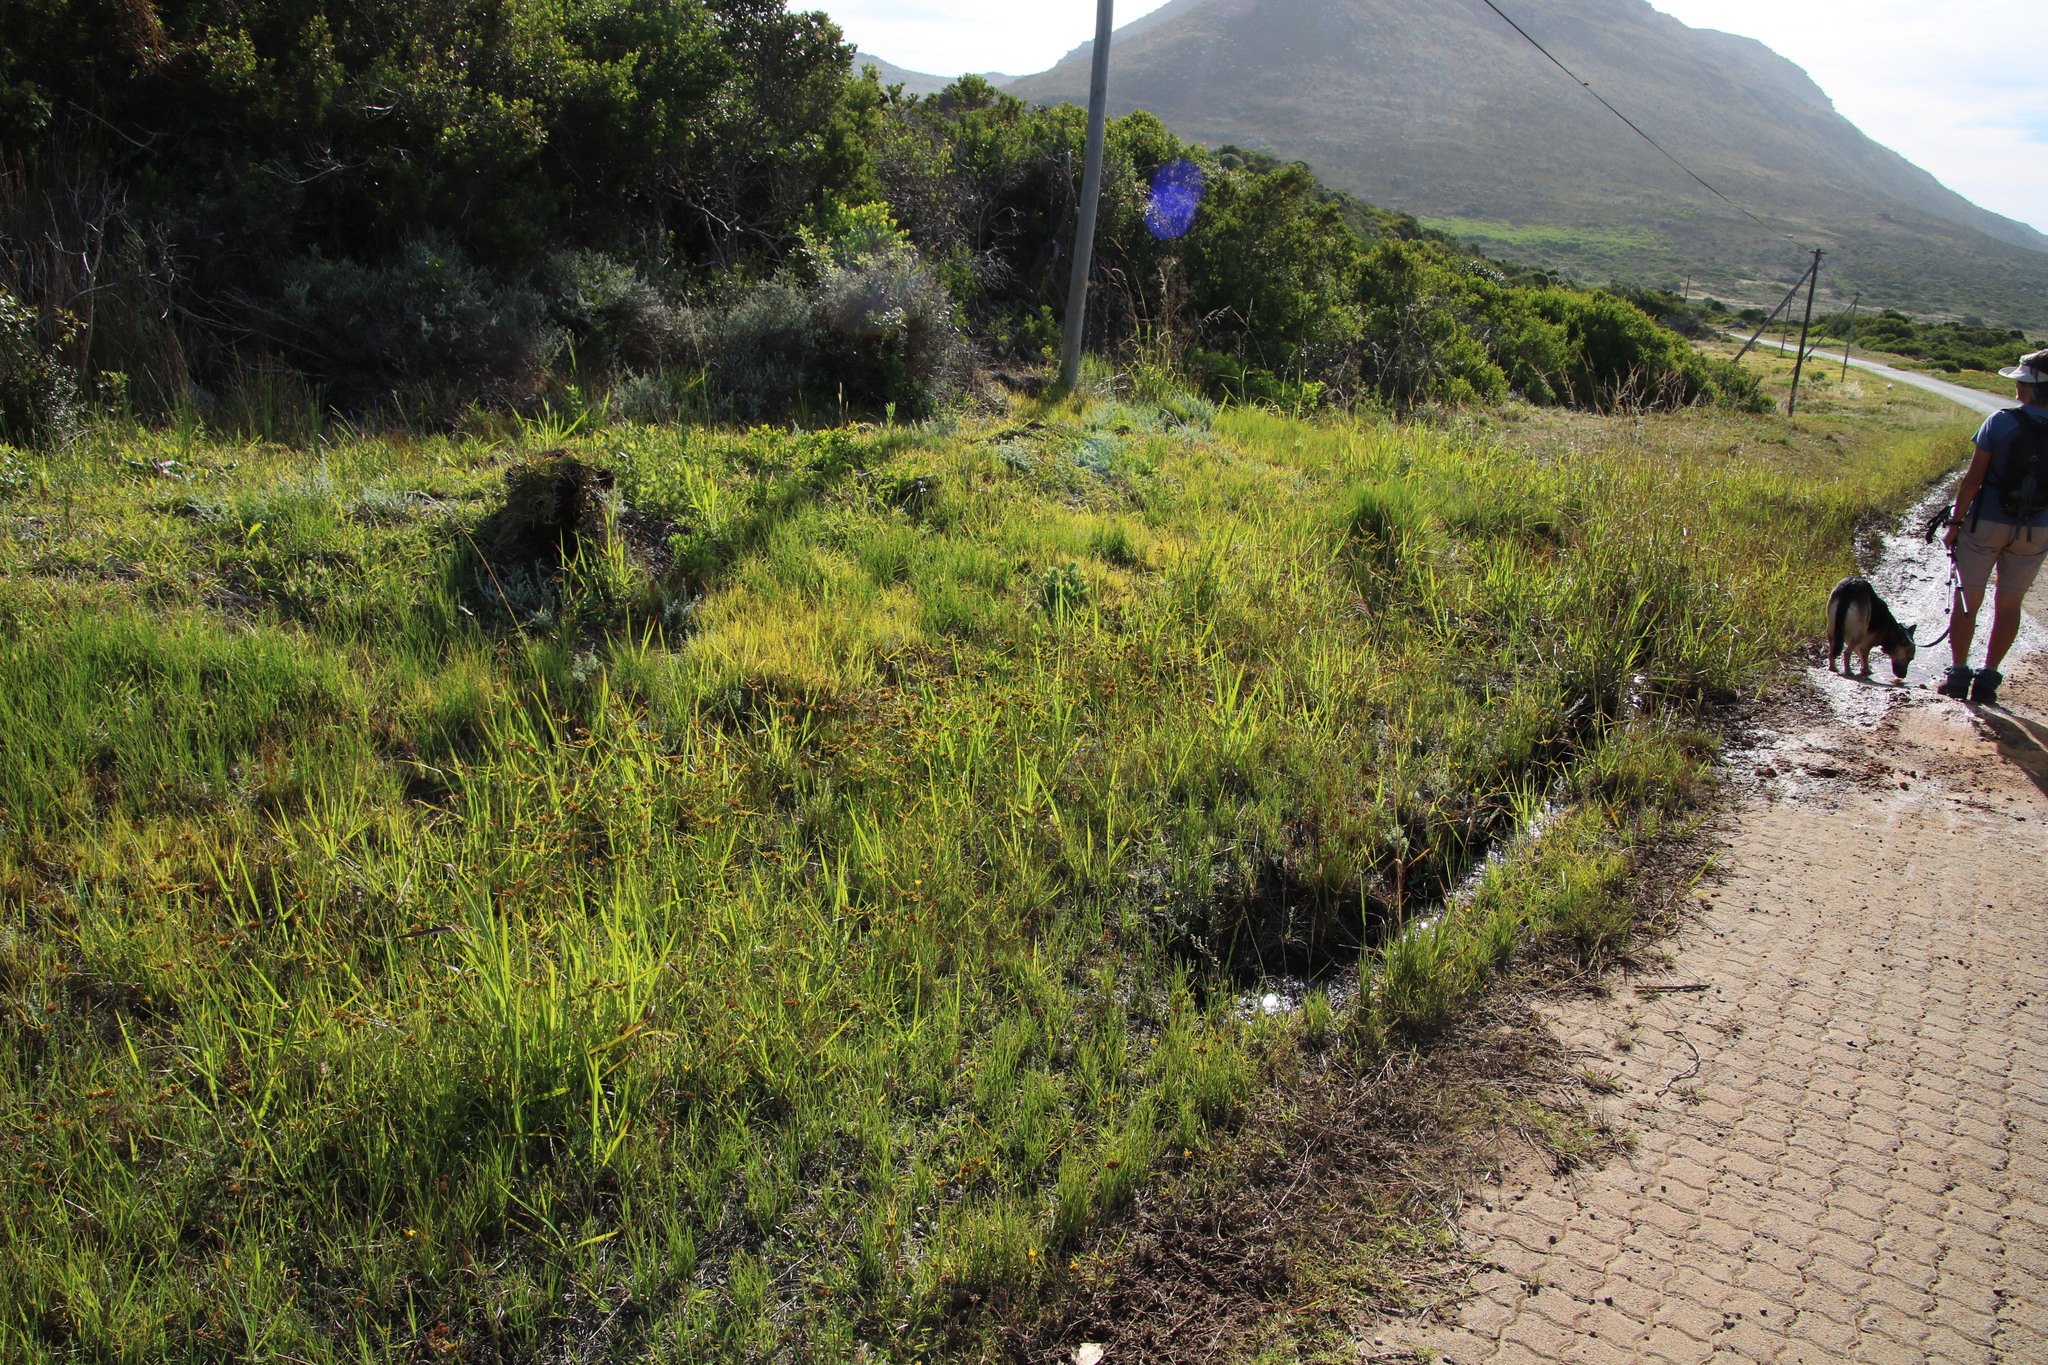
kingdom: Plantae
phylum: Tracheophyta
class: Liliopsida
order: Poales
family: Cyperaceae
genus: Cyperus
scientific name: Cyperus polystachyos
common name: Bunchy flat sedge
